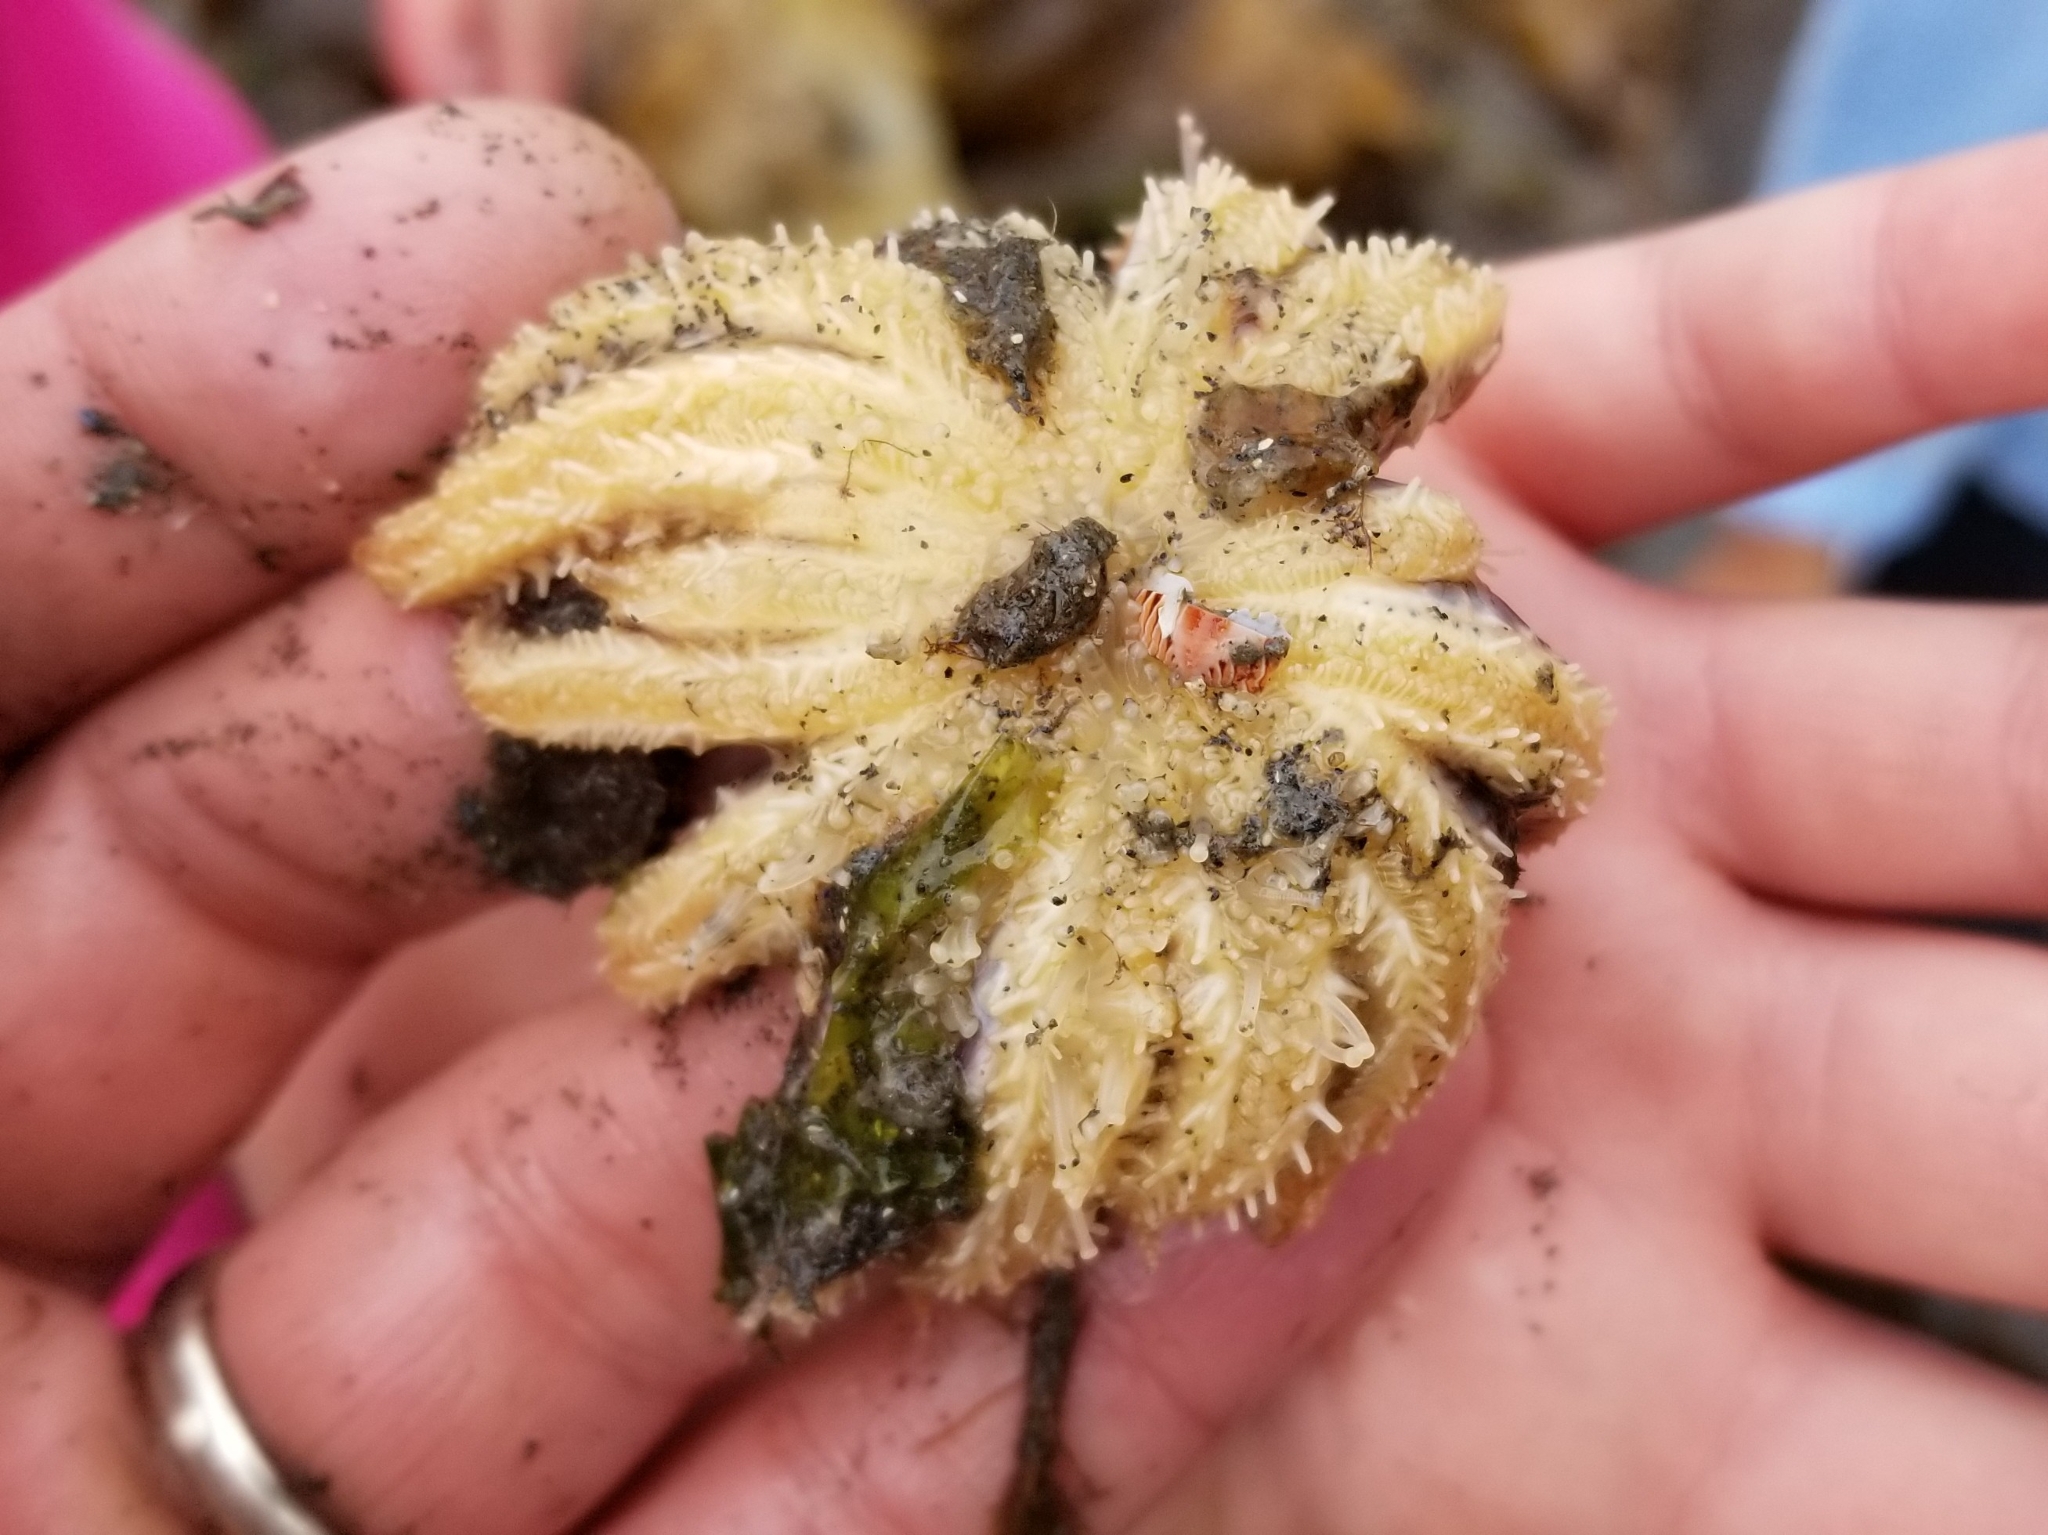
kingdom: Animalia
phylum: Echinodermata
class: Asteroidea
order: Forcipulatida
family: Asteriidae
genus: Pycnopodia
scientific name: Pycnopodia helianthoides
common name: Rag mop
